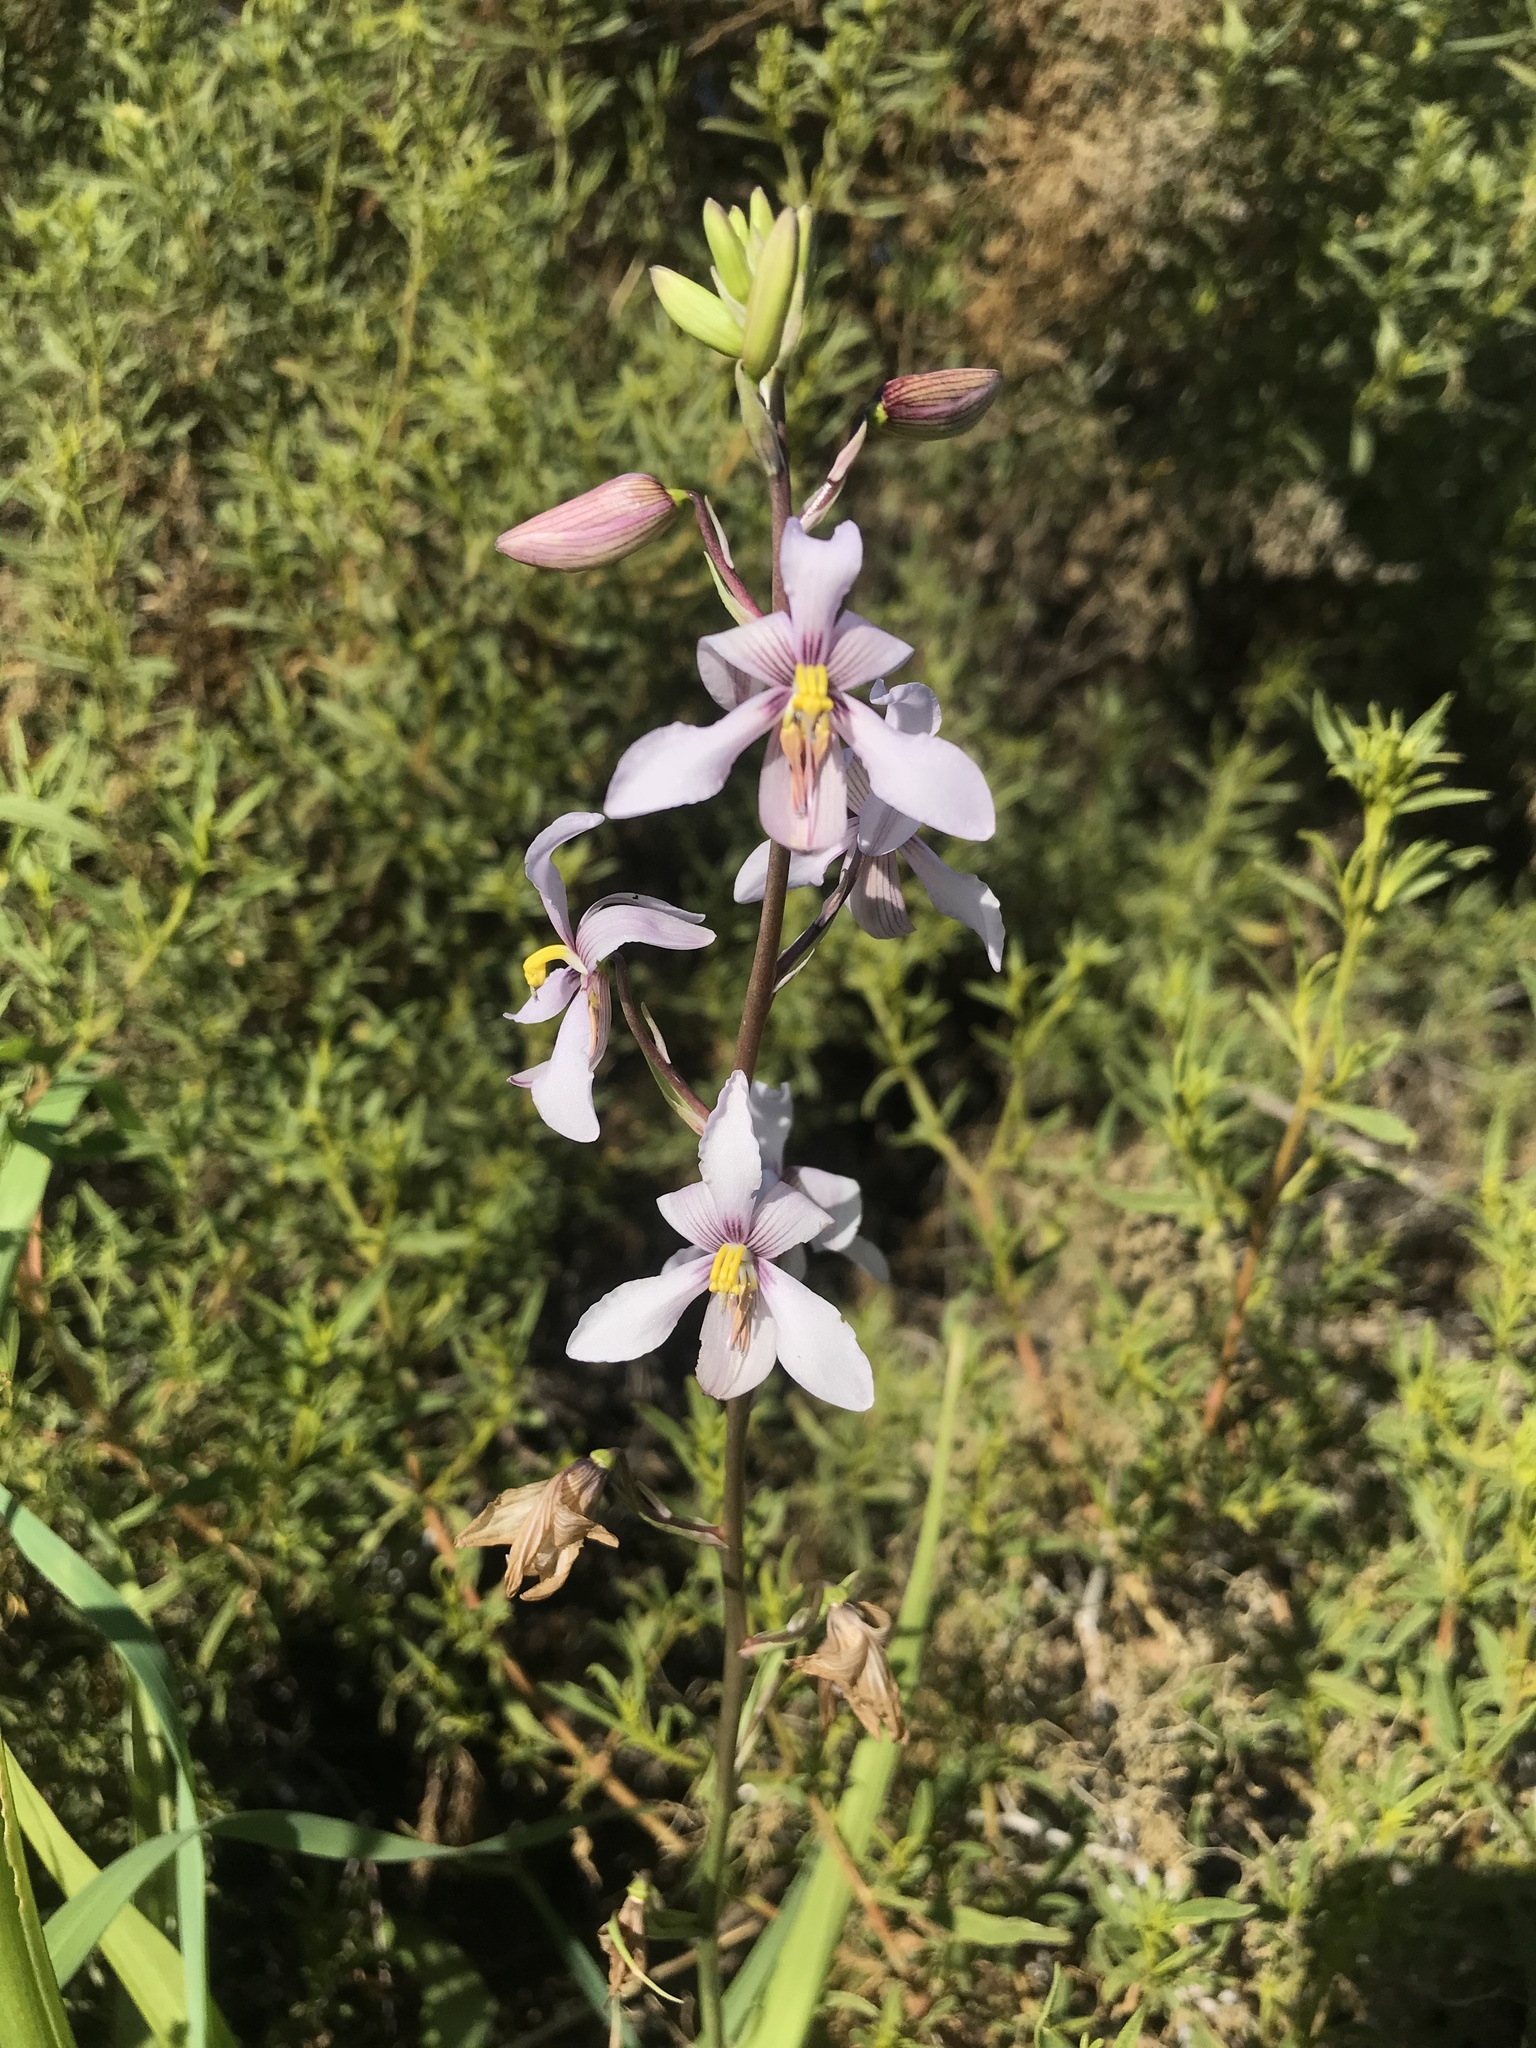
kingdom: Plantae
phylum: Tracheophyta
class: Liliopsida
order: Asparagales
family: Tecophilaeaceae
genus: Cyanella
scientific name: Cyanella orchidiformis
